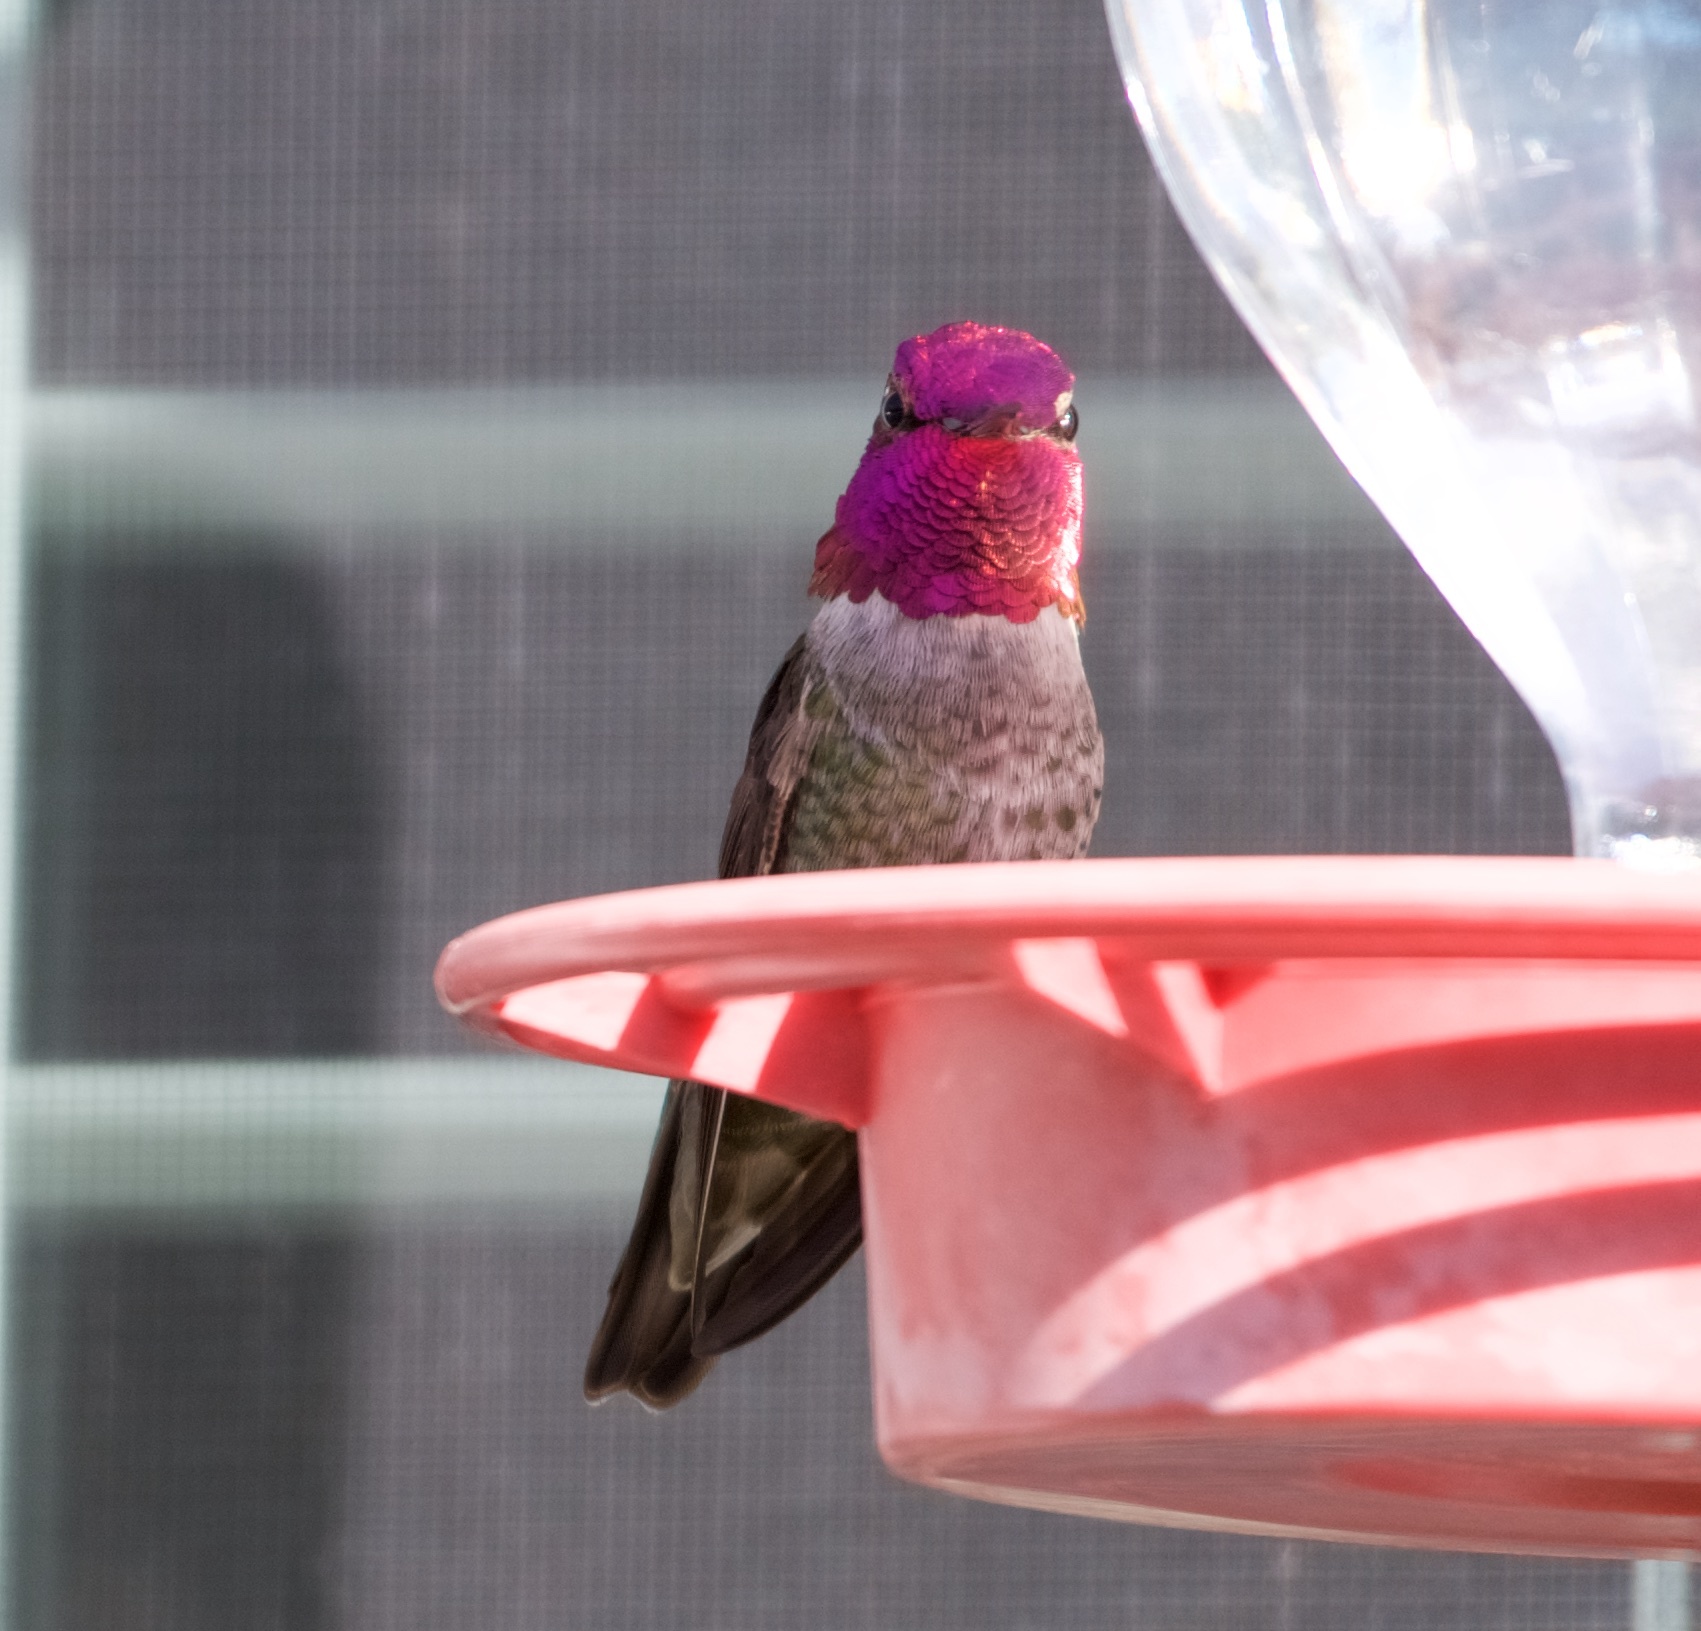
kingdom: Animalia
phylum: Chordata
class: Aves
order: Apodiformes
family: Trochilidae
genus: Calypte
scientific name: Calypte anna
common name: Anna's hummingbird
